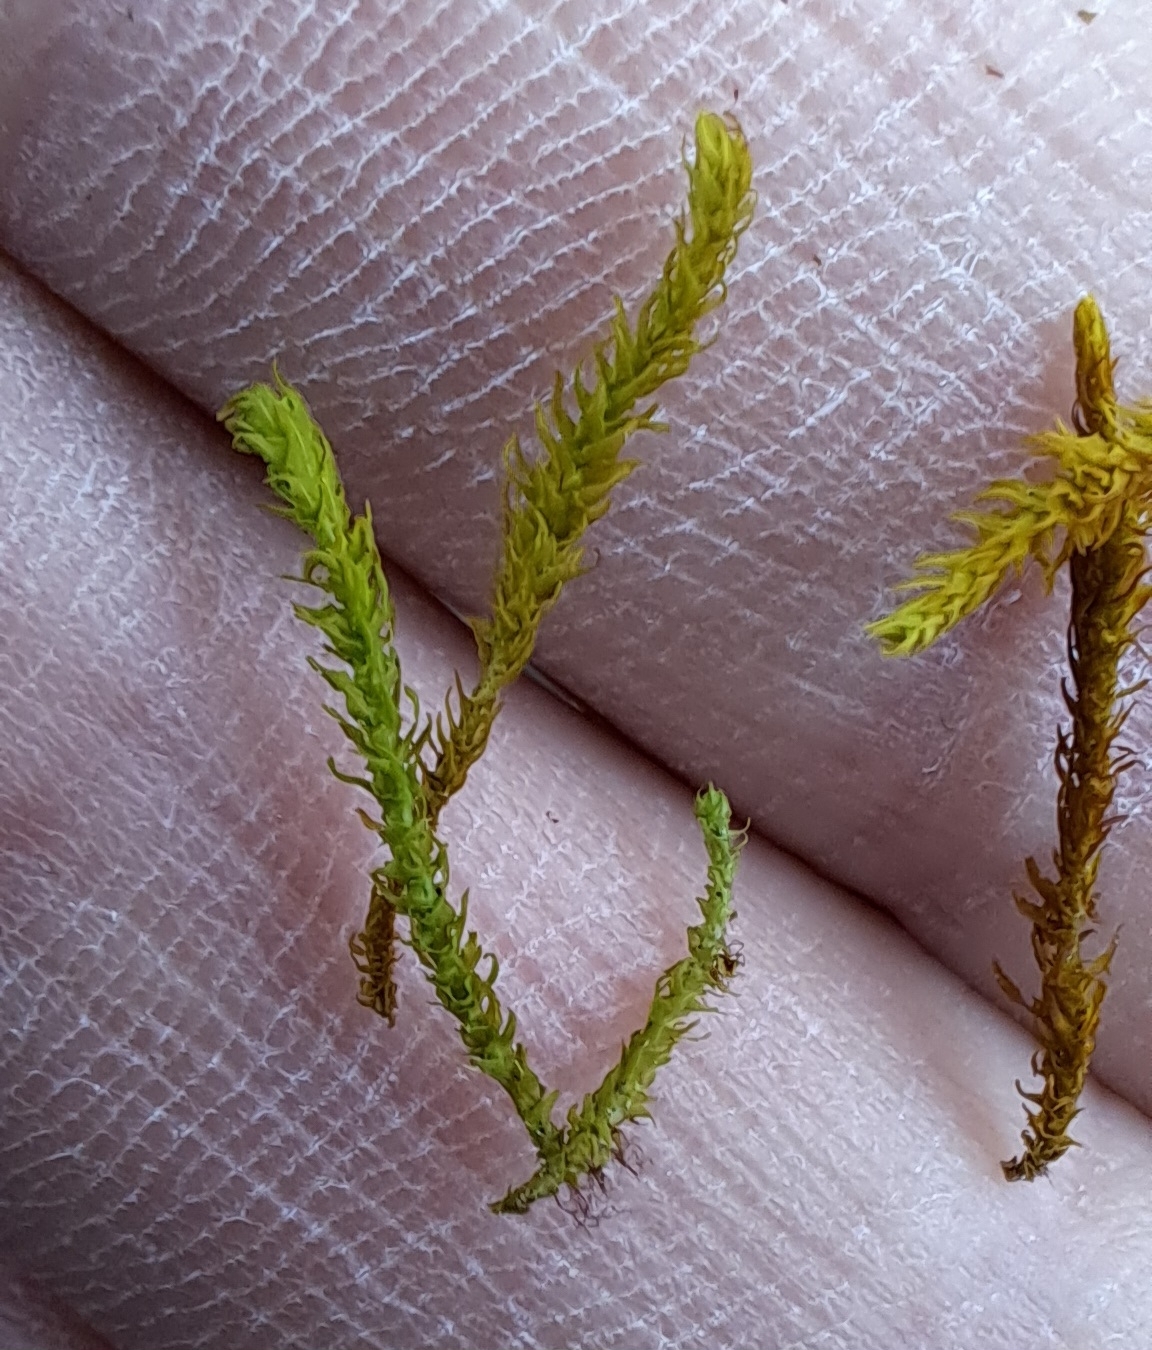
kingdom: Plantae
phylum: Bryophyta
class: Bryopsida
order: Hypnales
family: Anomodontaceae
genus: Anomodon
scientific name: Anomodon viticulosus
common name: Tall anomodon
